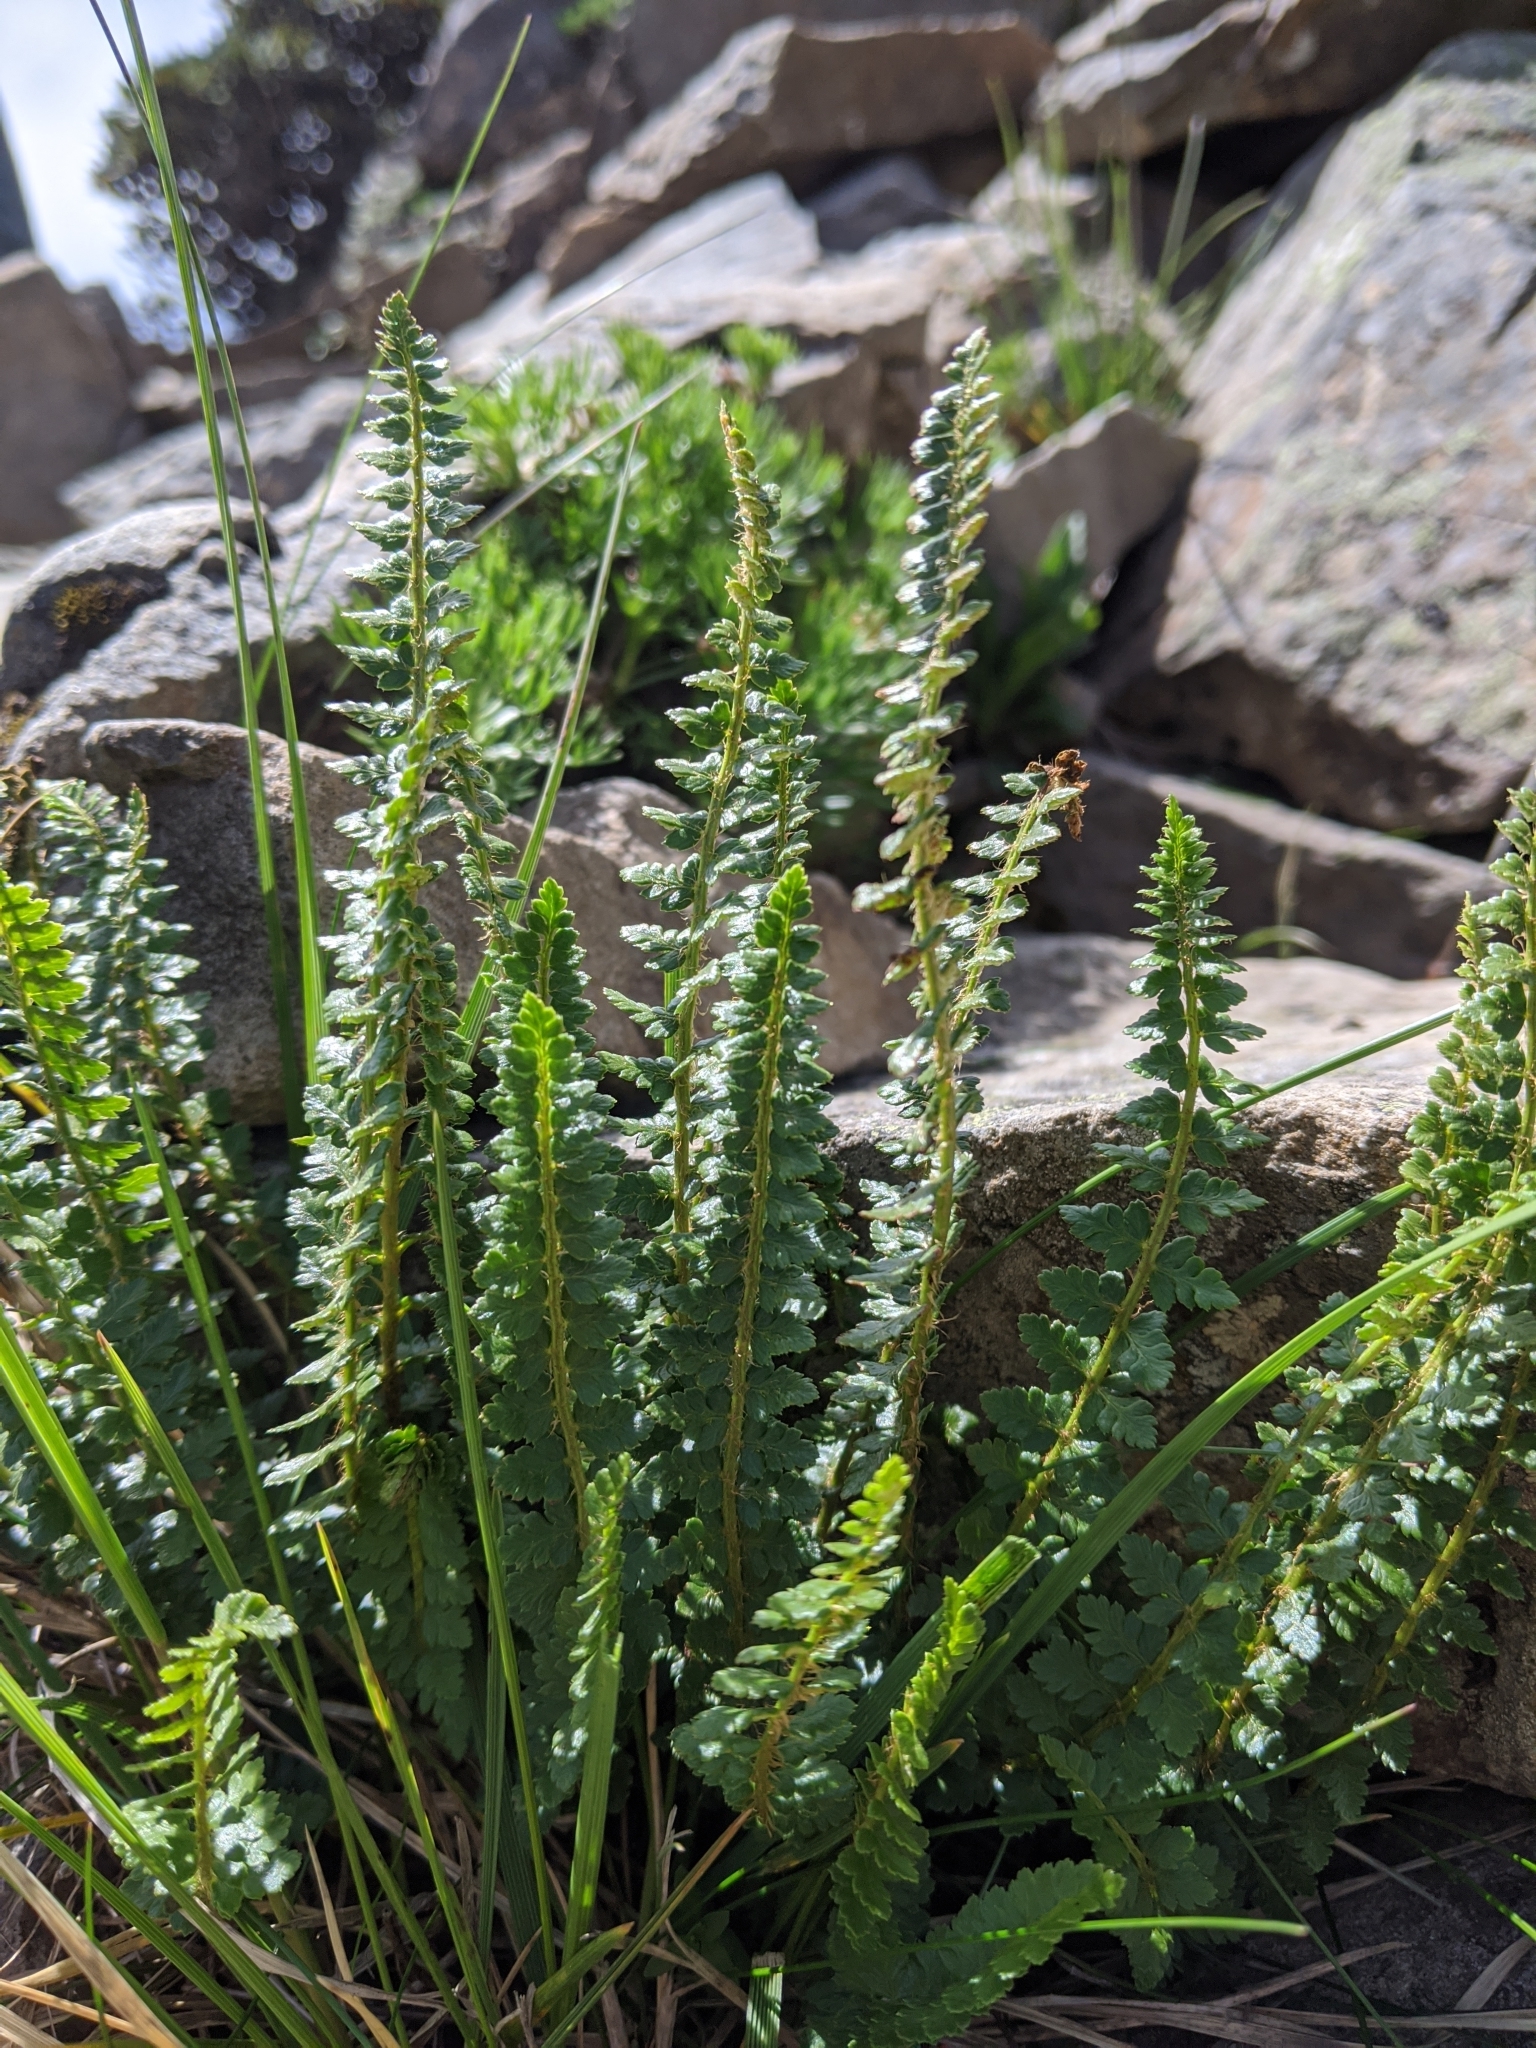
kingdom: Plantae
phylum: Tracheophyta
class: Polypodiopsida
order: Polypodiales
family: Dryopteridaceae
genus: Polystichum
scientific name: Polystichum lachenense
